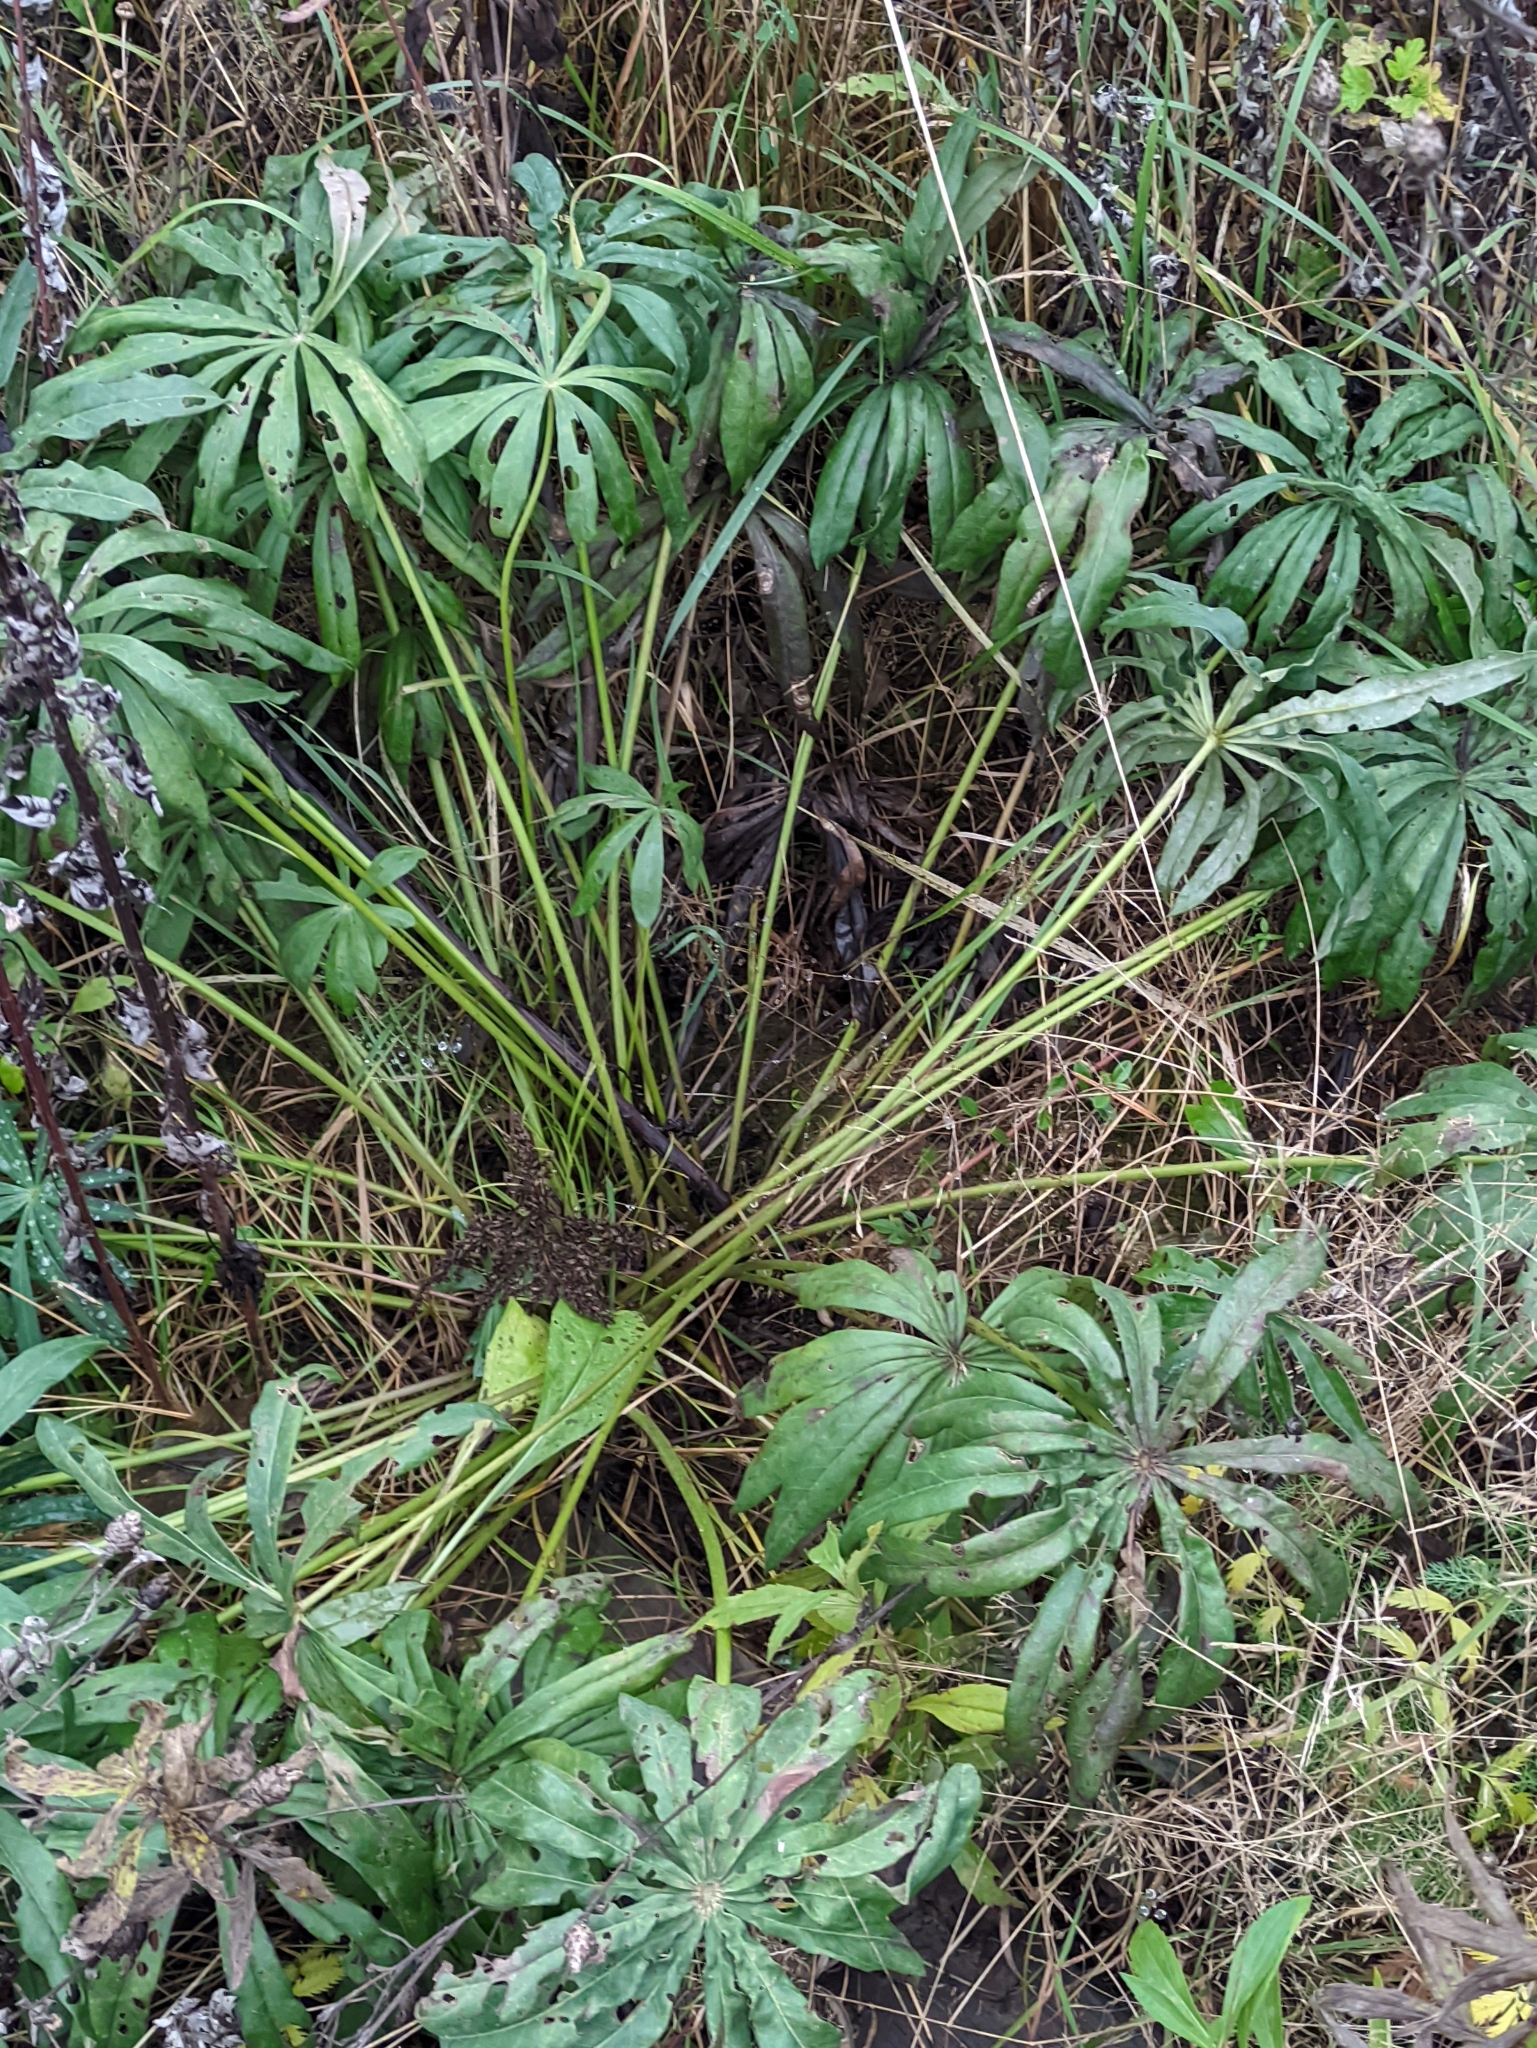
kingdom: Plantae
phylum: Tracheophyta
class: Magnoliopsida
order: Fabales
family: Fabaceae
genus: Lupinus
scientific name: Lupinus polyphyllus
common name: Garden lupin
